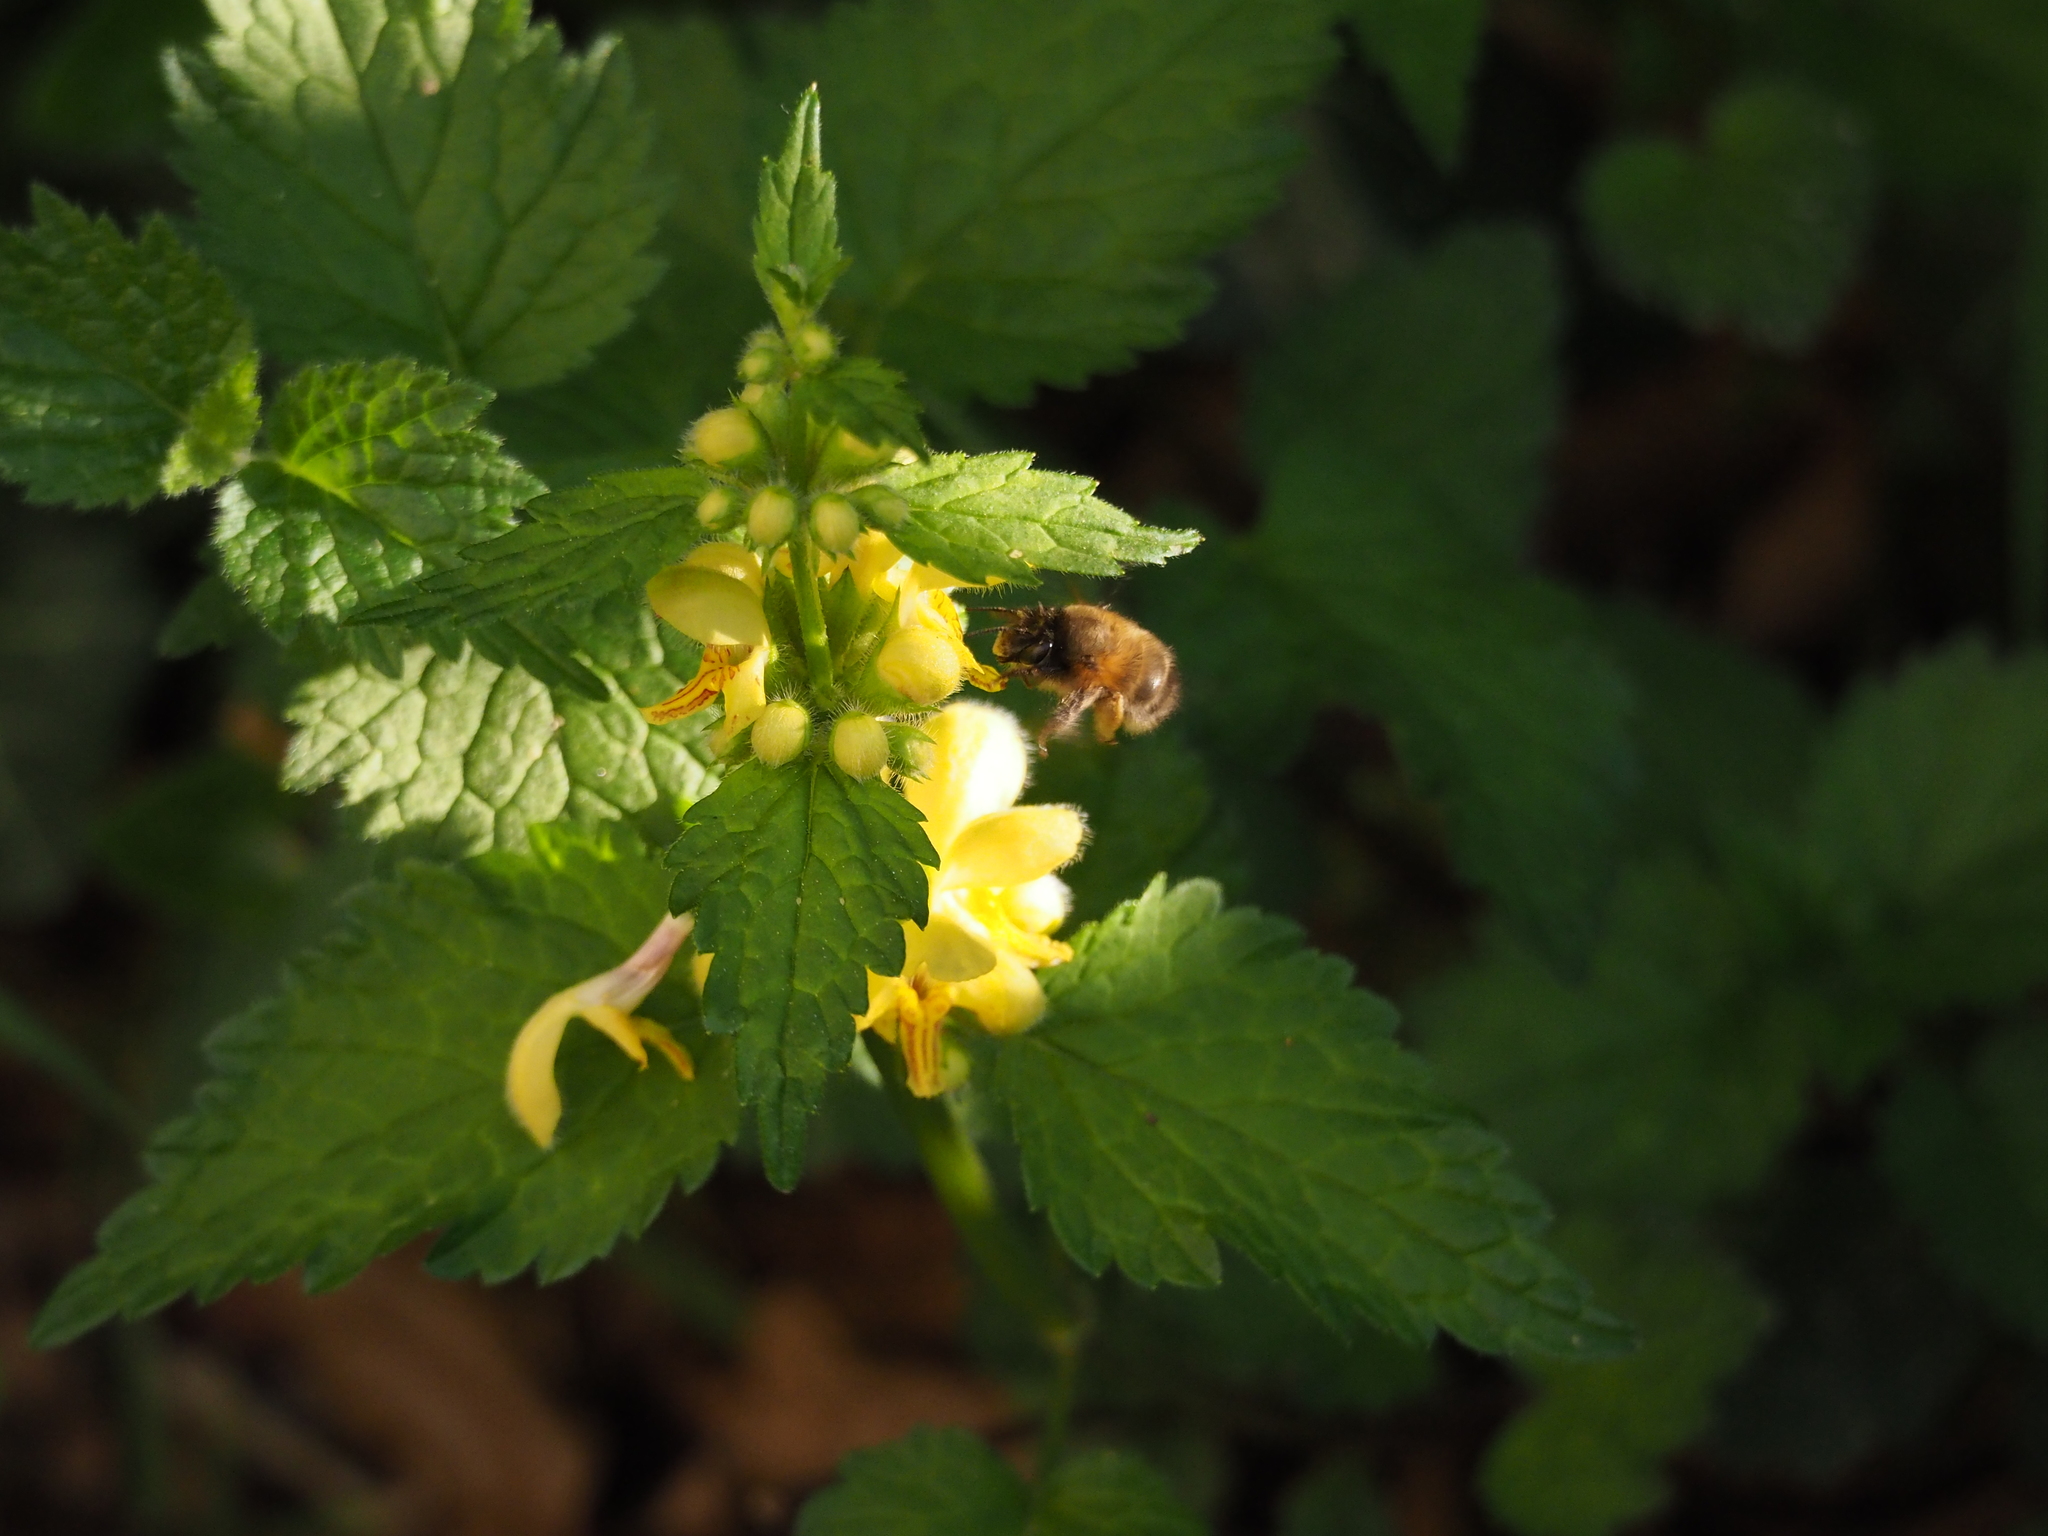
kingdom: Animalia
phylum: Arthropoda
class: Insecta
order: Hymenoptera
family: Apidae
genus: Anthophora
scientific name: Anthophora plumipes
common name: Hairy-footed flower bee
